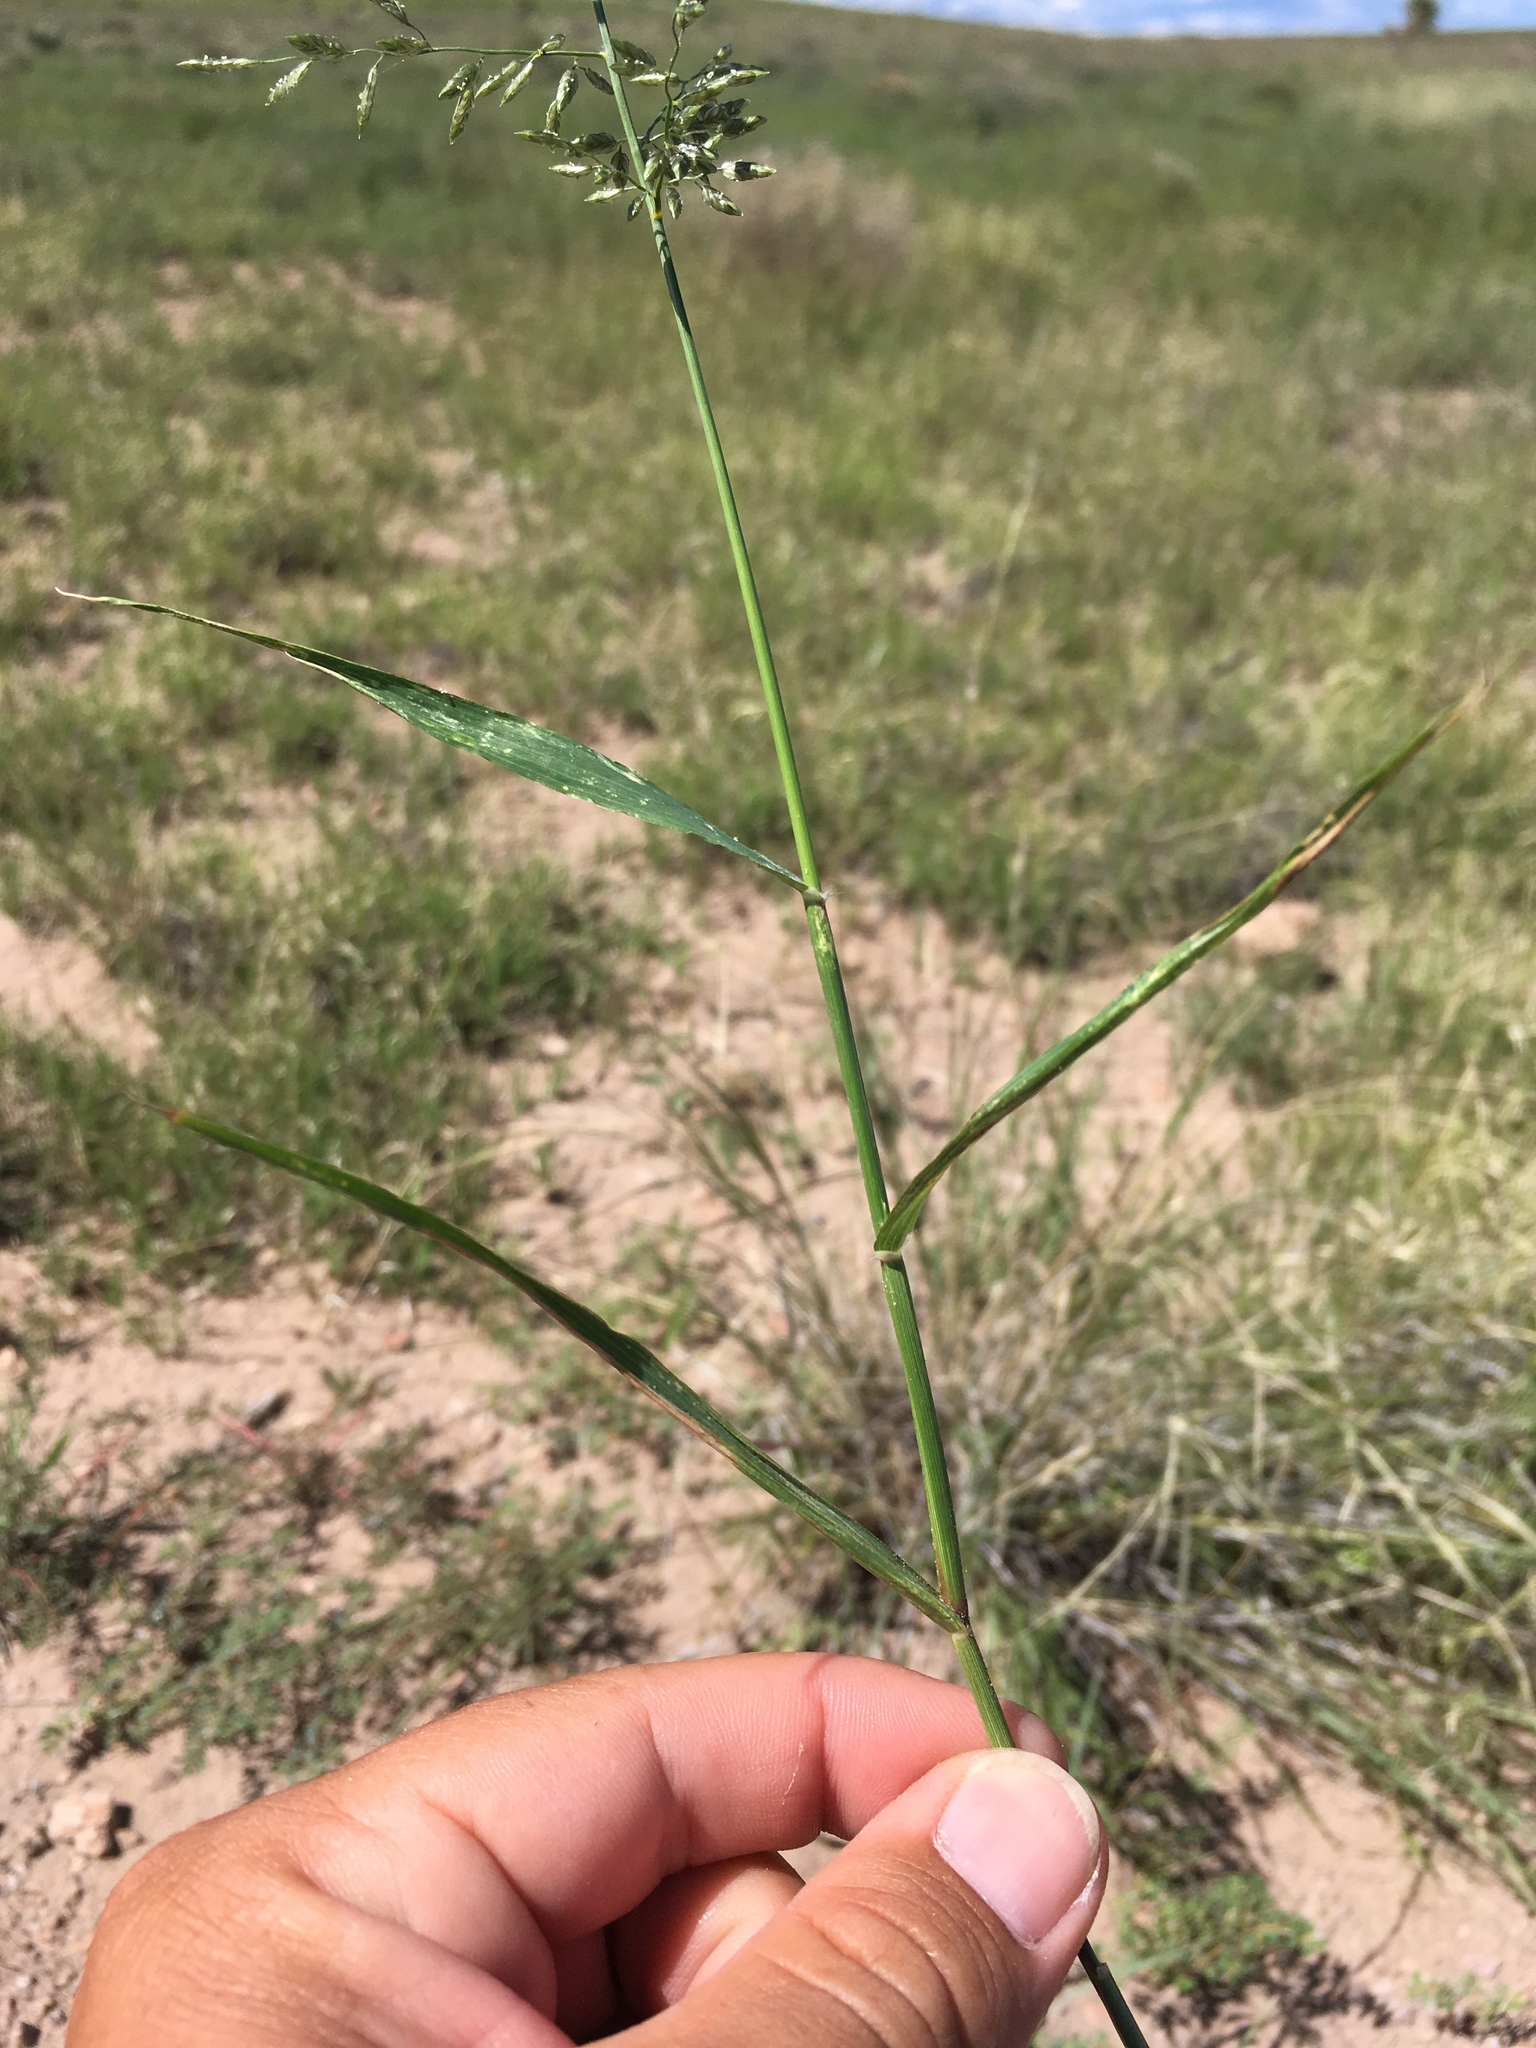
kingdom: Plantae
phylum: Tracheophyta
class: Liliopsida
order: Poales
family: Poaceae
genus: Eragrostis
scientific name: Eragrostis cilianensis
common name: Stinkgrass
